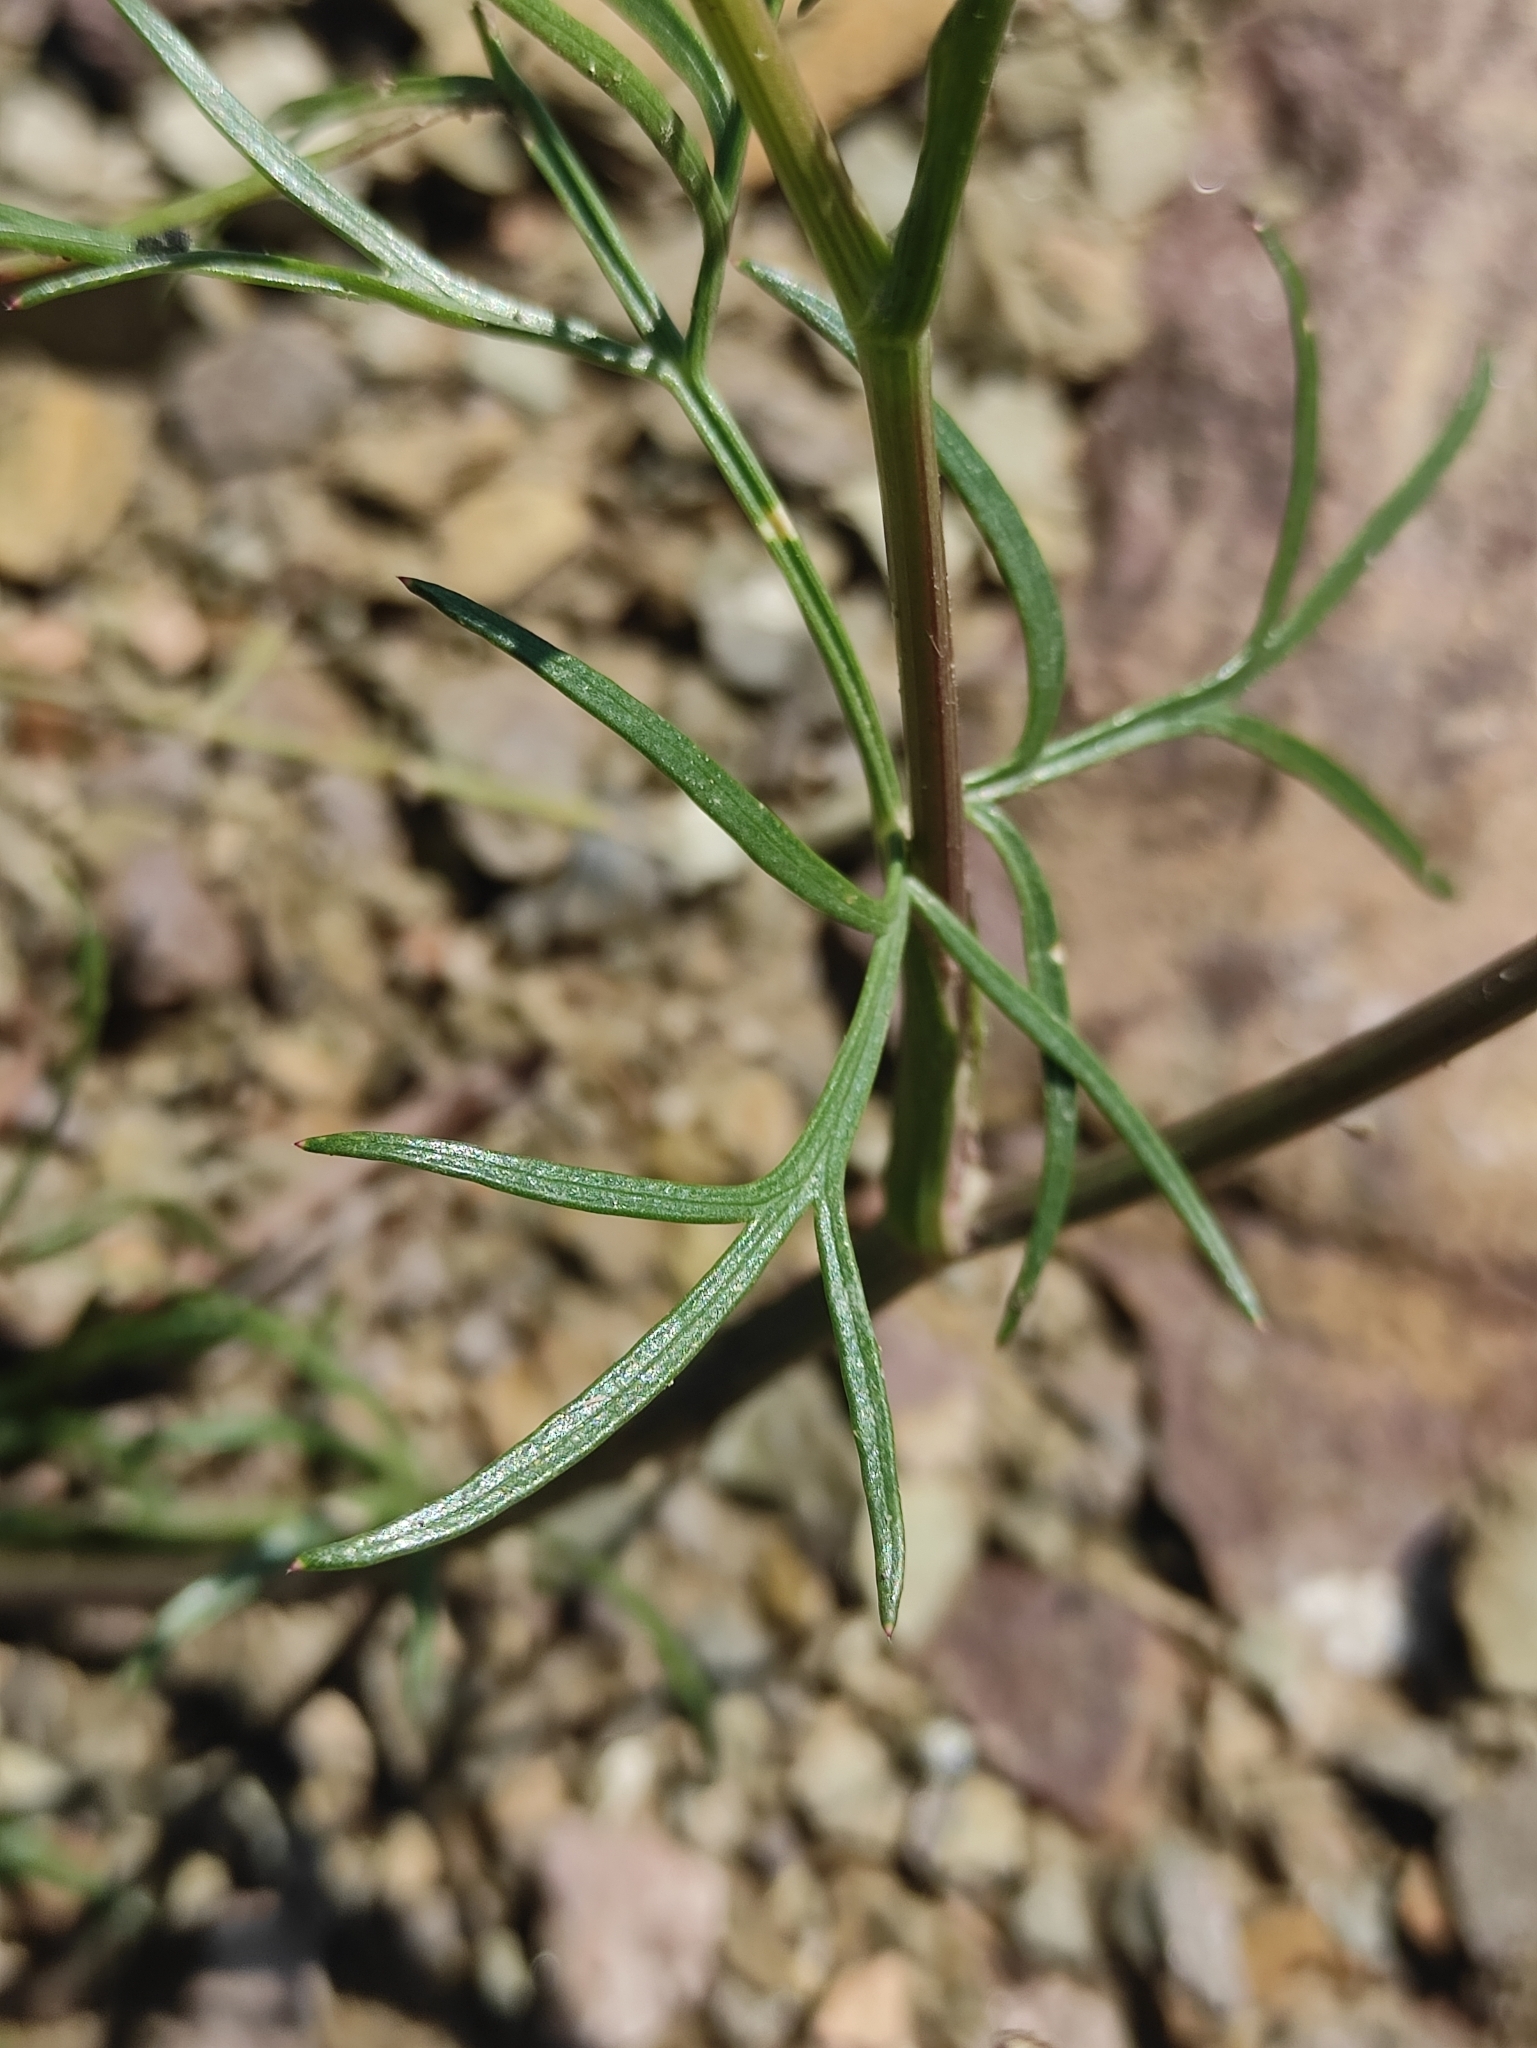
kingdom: Plantae
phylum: Tracheophyta
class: Magnoliopsida
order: Apiales
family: Apiaceae
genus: Kitagawia
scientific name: Kitagawia baicalensis
